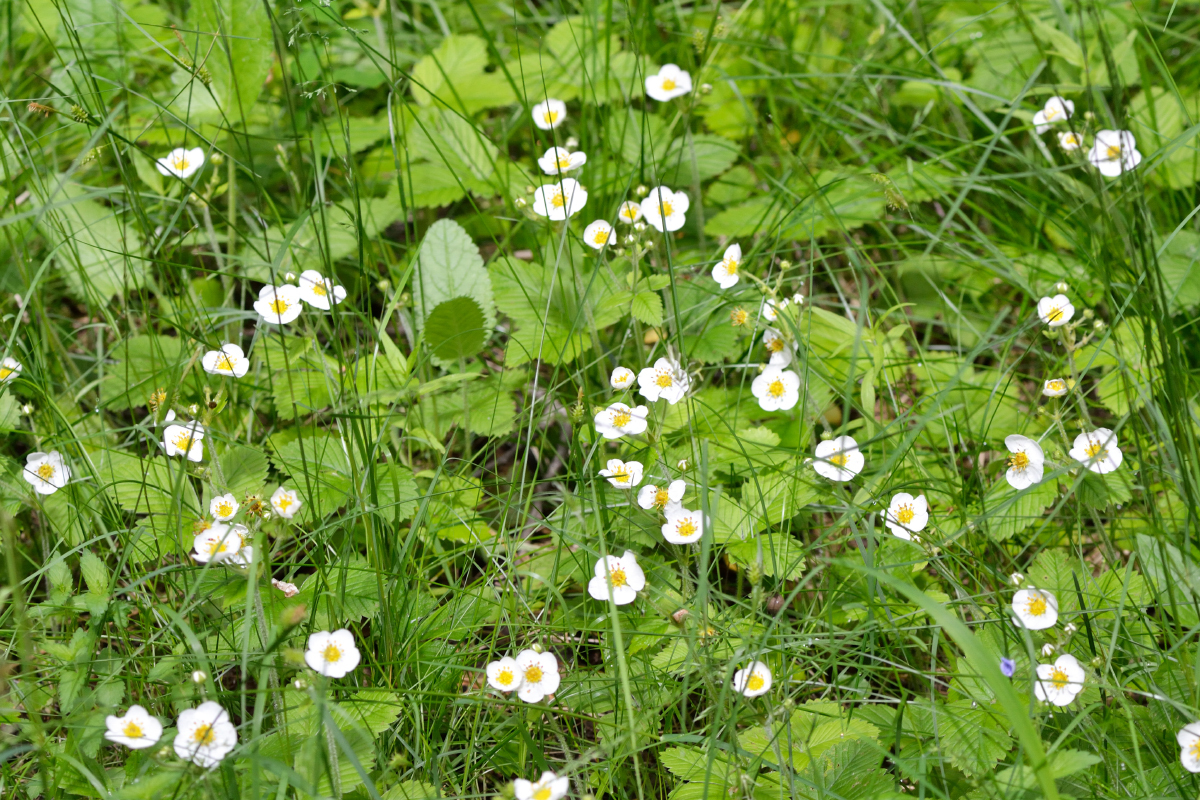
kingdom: Plantae
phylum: Tracheophyta
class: Magnoliopsida
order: Rosales
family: Rosaceae
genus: Fragaria
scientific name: Fragaria moschata
